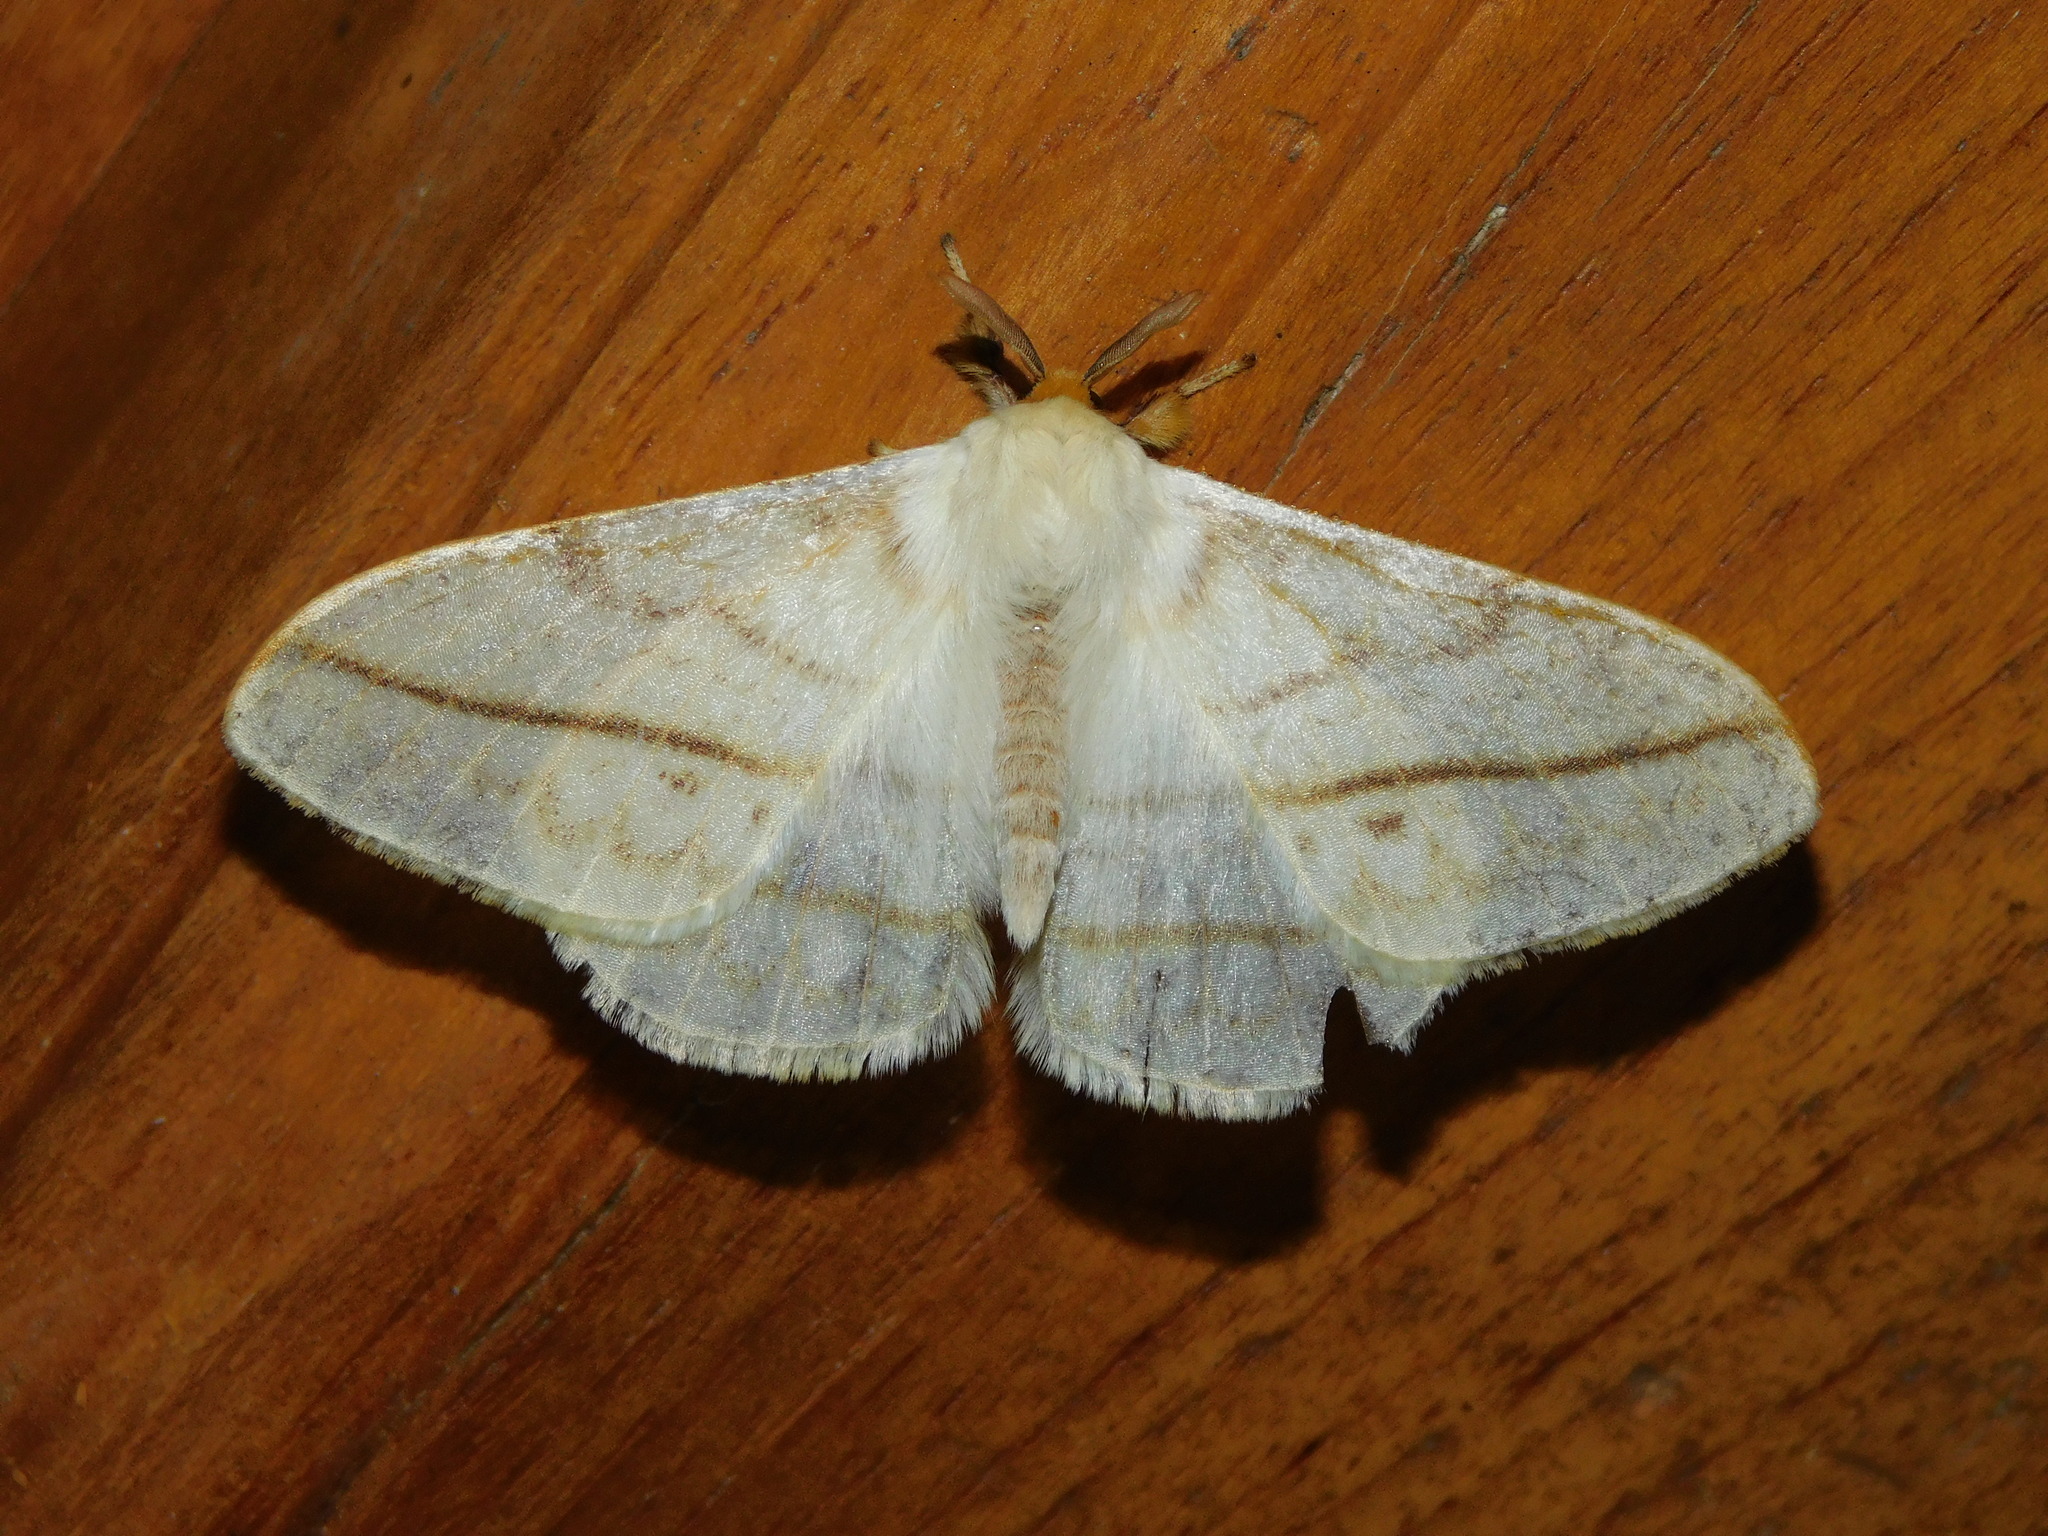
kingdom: Animalia
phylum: Arthropoda
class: Insecta
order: Lepidoptera
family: Eupterotidae
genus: Eupterote
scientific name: Eupterote diffusa
